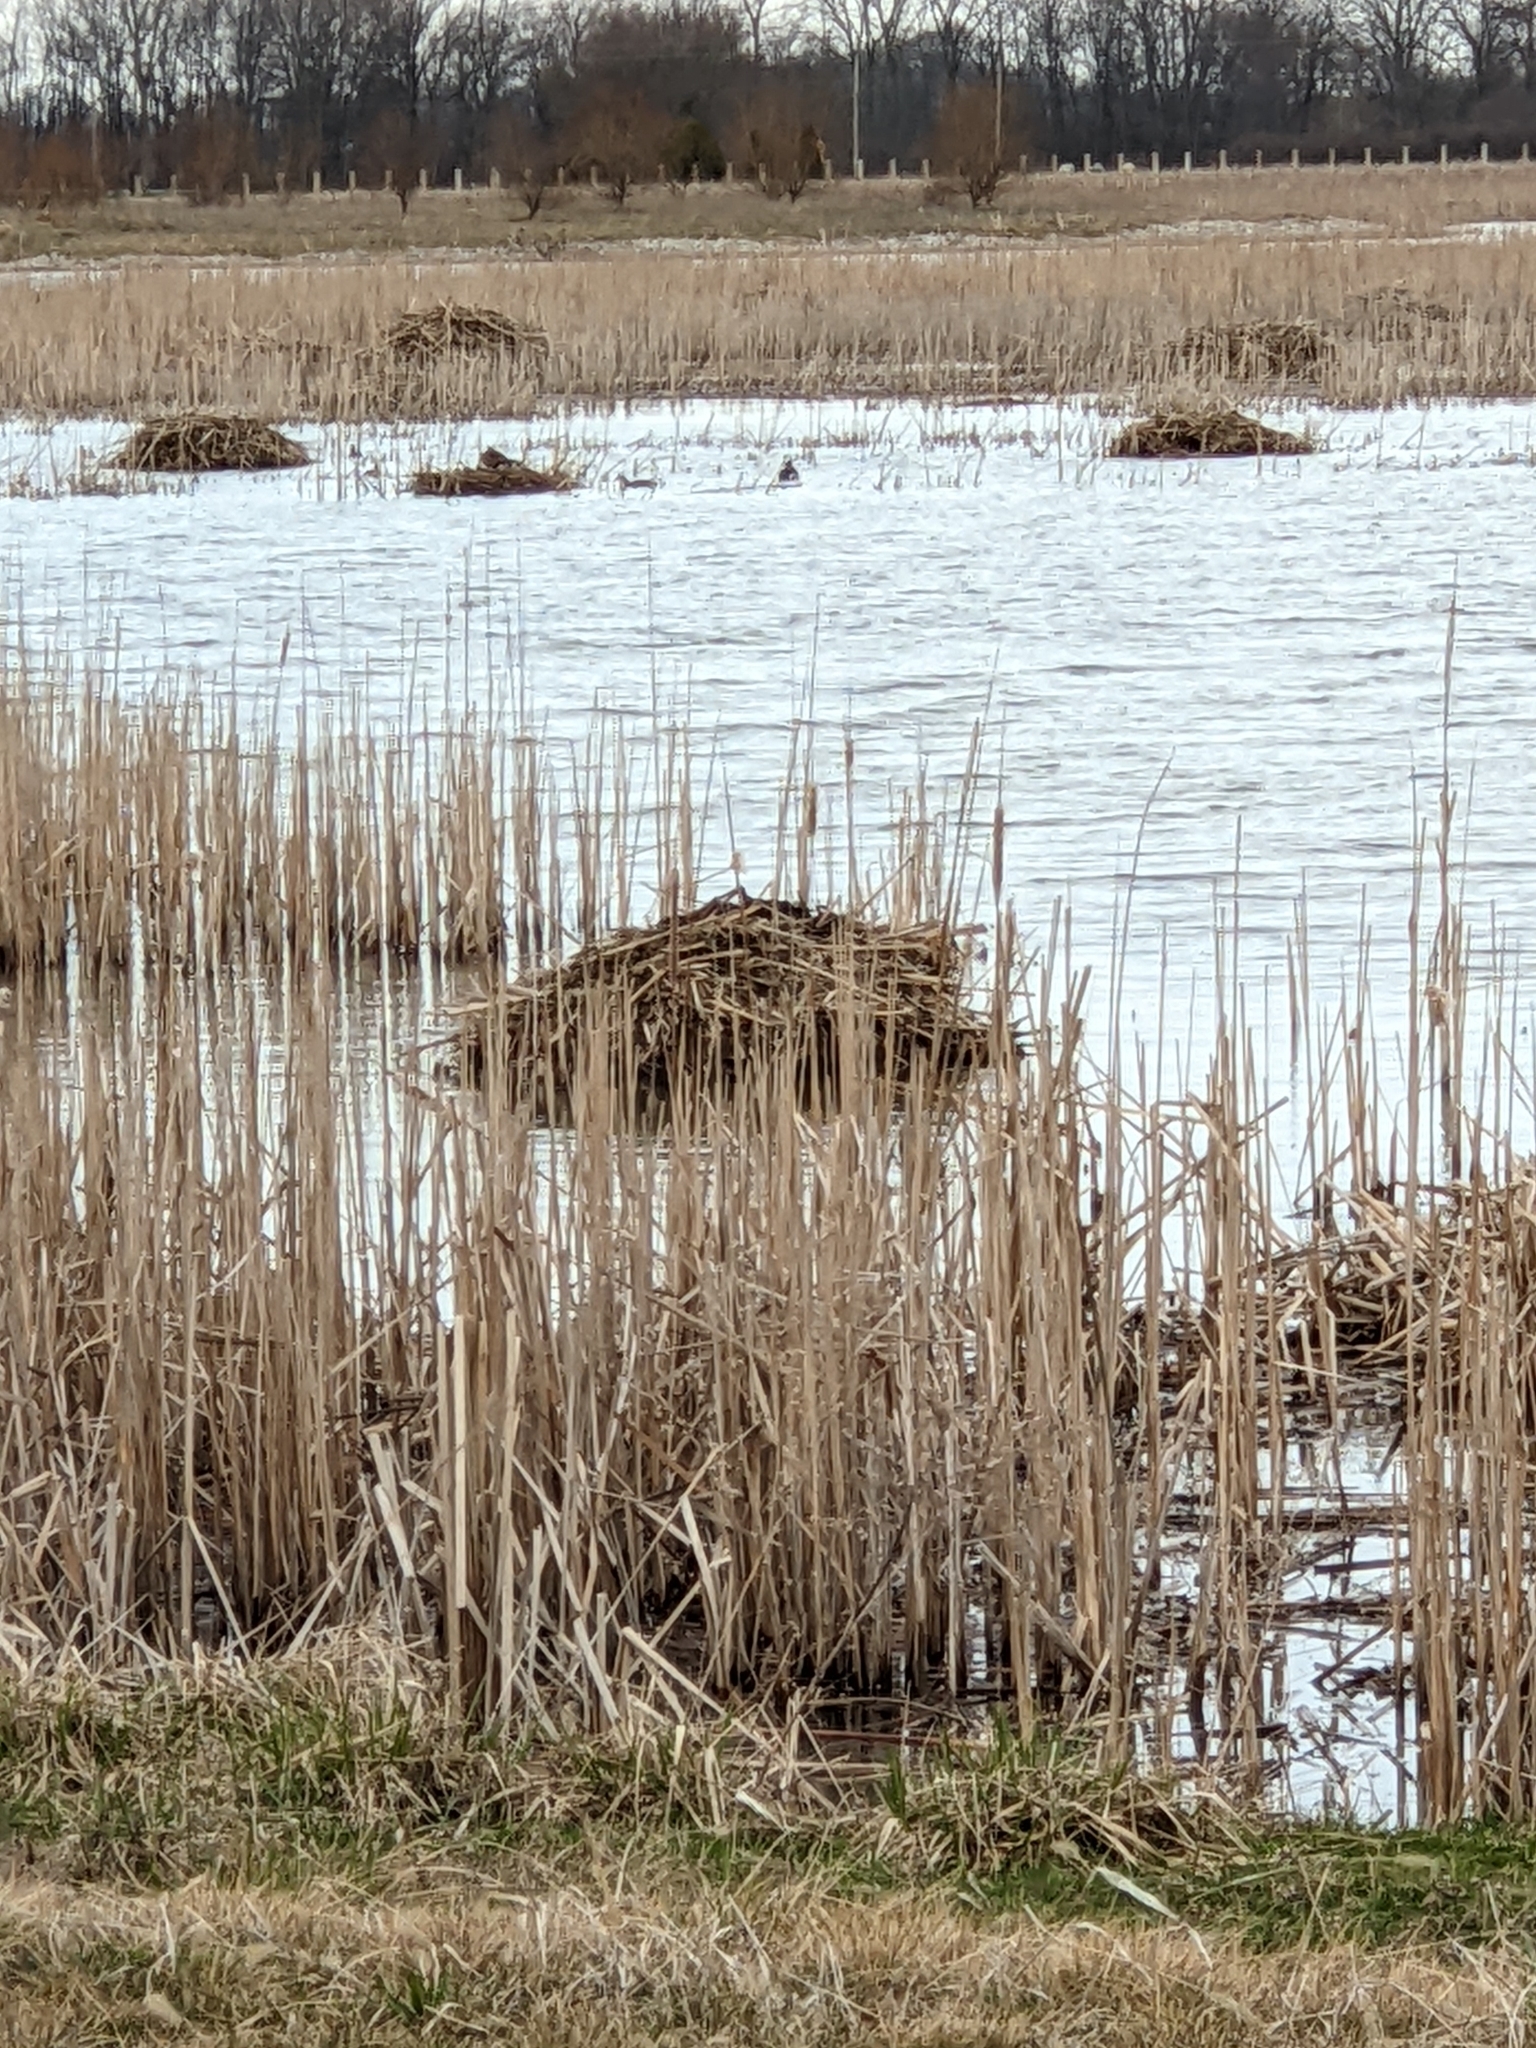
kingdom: Animalia
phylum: Chordata
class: Mammalia
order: Rodentia
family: Cricetidae
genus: Ondatra
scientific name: Ondatra zibethicus
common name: Muskrat
